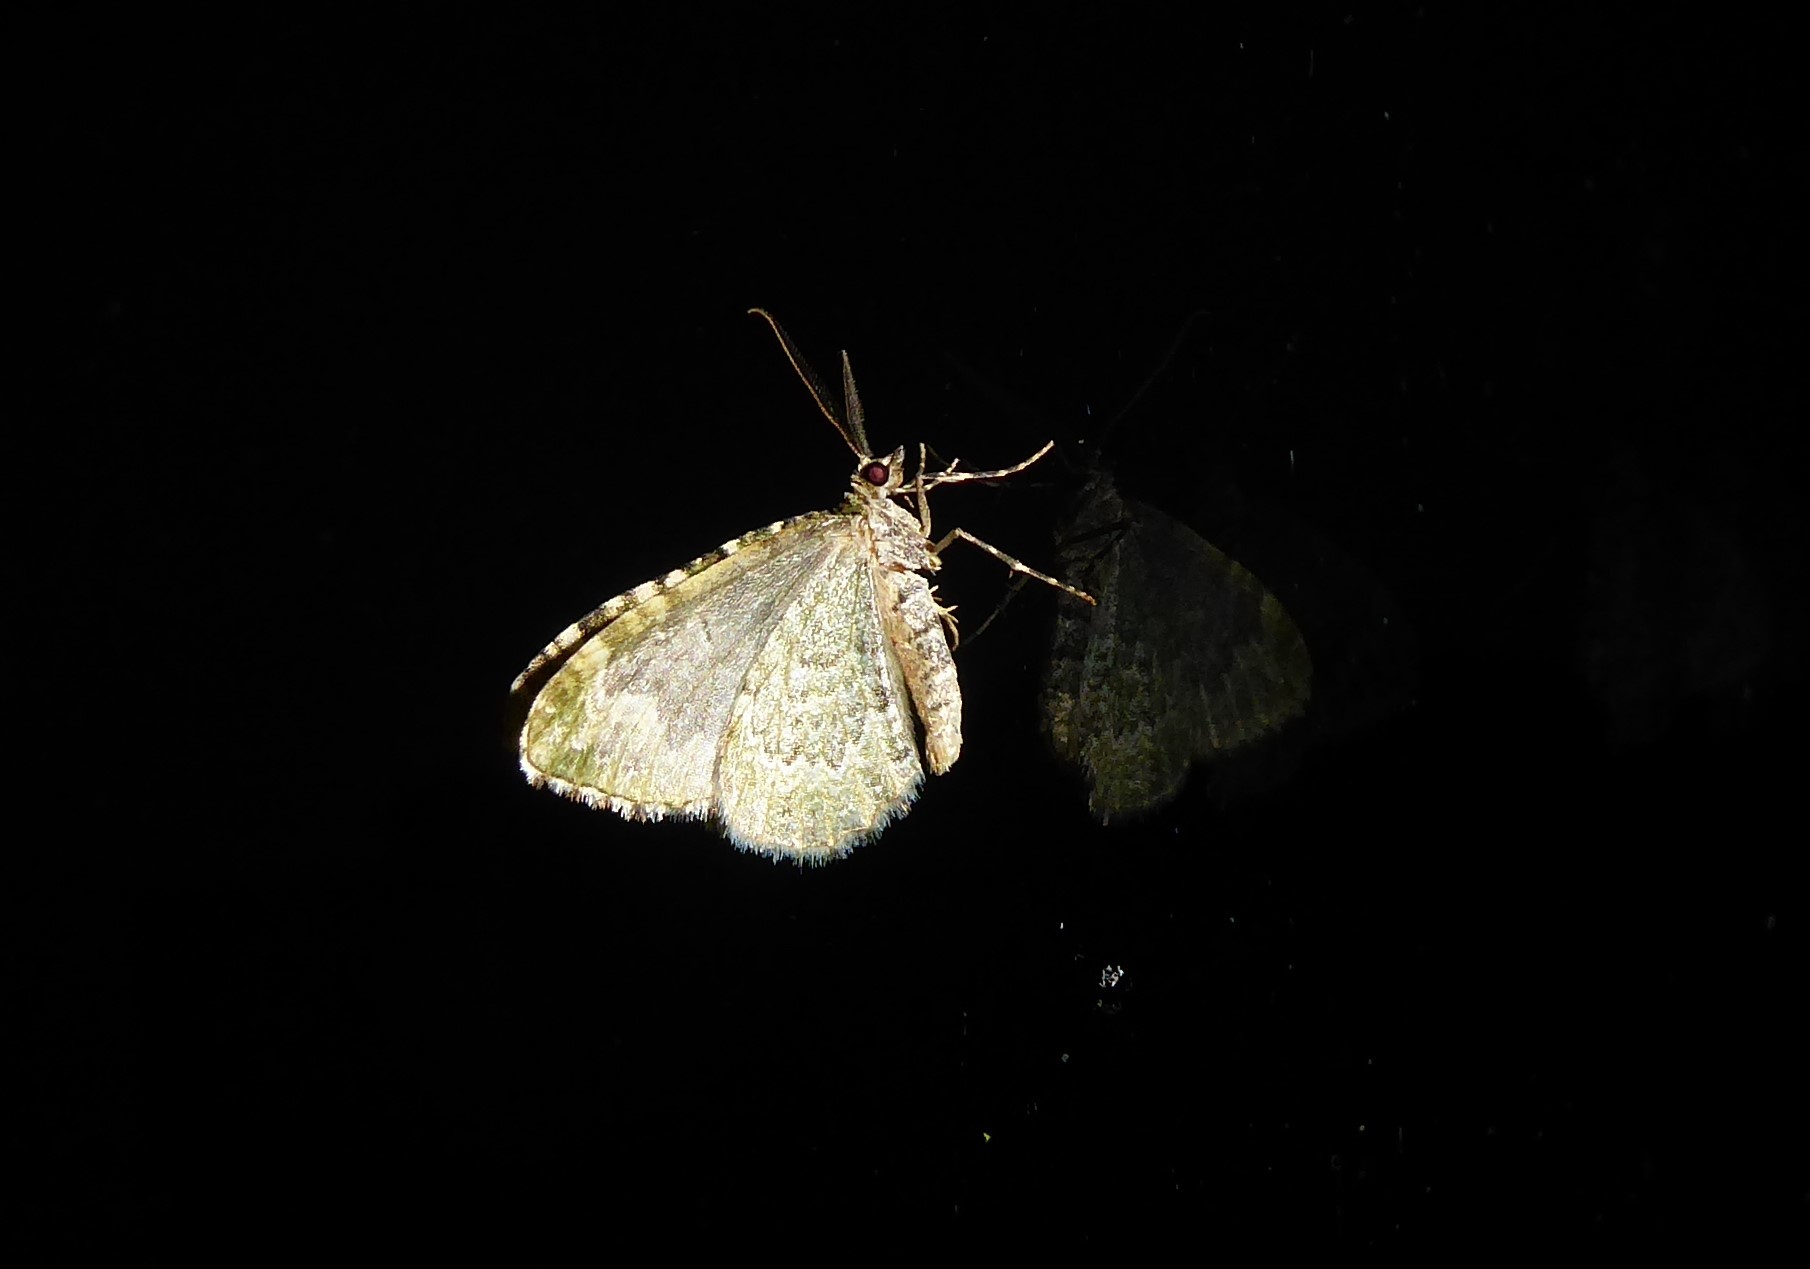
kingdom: Animalia
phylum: Arthropoda
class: Insecta
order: Lepidoptera
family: Geometridae
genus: Asaphodes
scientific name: Asaphodes beata
